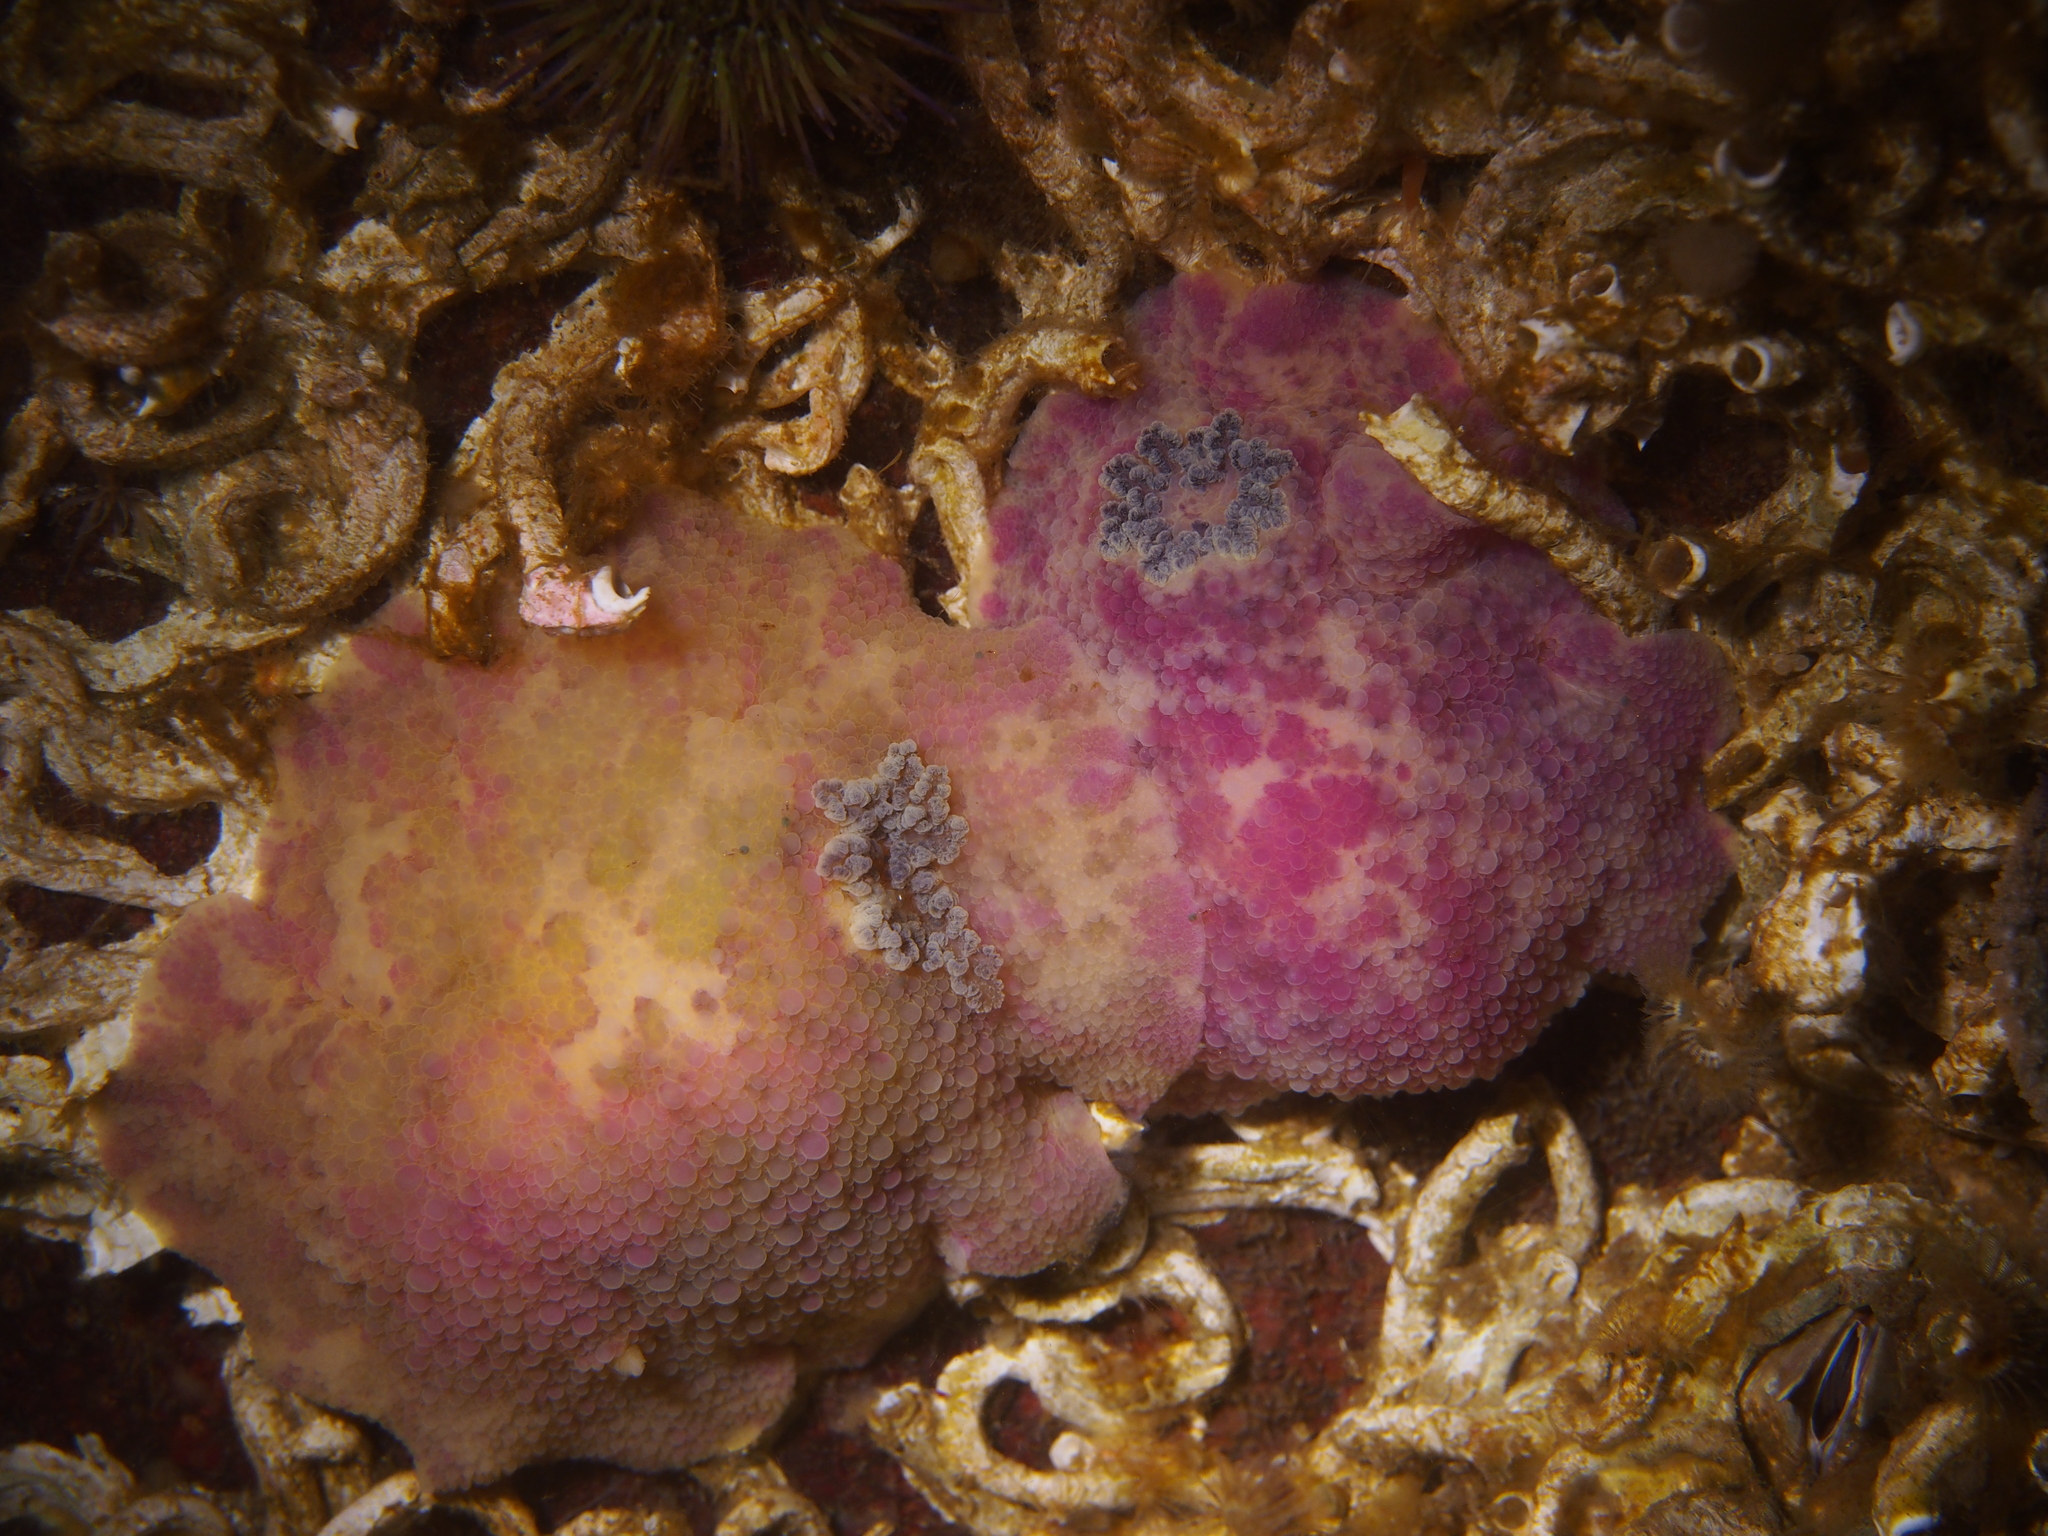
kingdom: Animalia
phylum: Mollusca
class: Gastropoda
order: Nudibranchia
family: Dorididae
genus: Doris
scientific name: Doris pseudoargus
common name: Sea lemon
